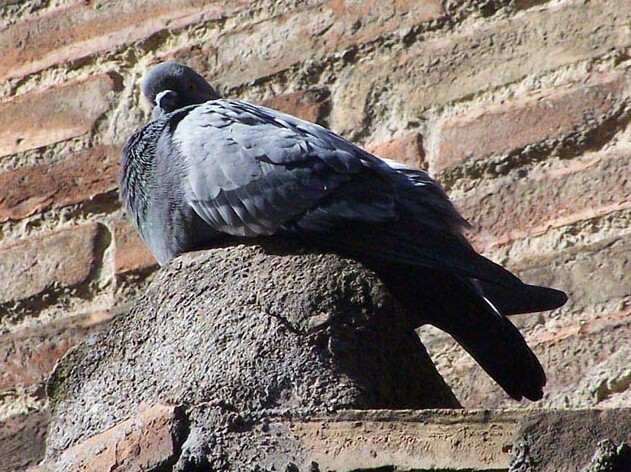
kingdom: Animalia
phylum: Chordata
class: Aves
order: Columbiformes
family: Columbidae
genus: Columba
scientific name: Columba livia
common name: Rock pigeon
